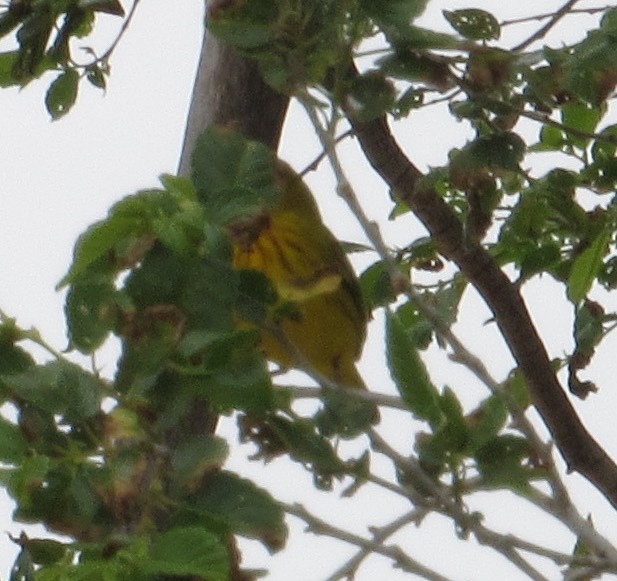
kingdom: Animalia
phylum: Chordata
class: Aves
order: Passeriformes
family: Parulidae
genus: Setophaga
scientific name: Setophaga petechia
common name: Yellow warbler
